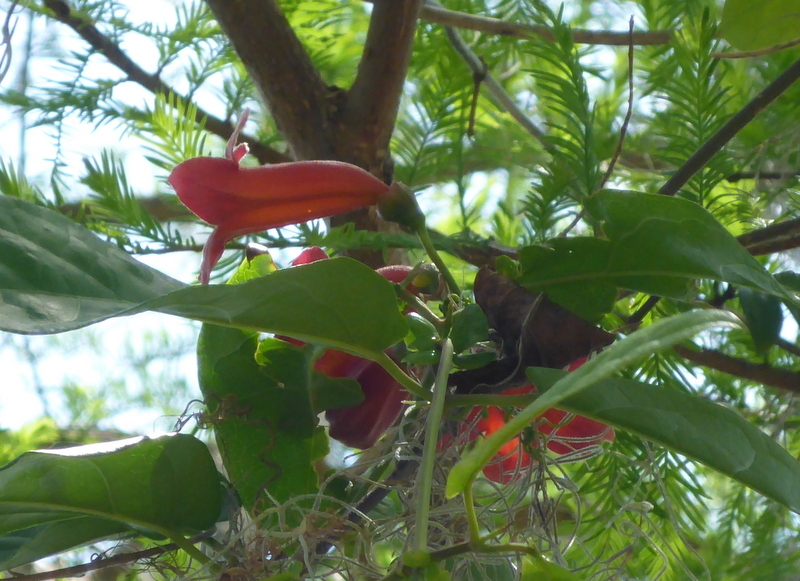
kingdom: Plantae
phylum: Tracheophyta
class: Magnoliopsida
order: Lamiales
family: Bignoniaceae
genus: Bignonia
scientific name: Bignonia capreolata
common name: Crossvine
